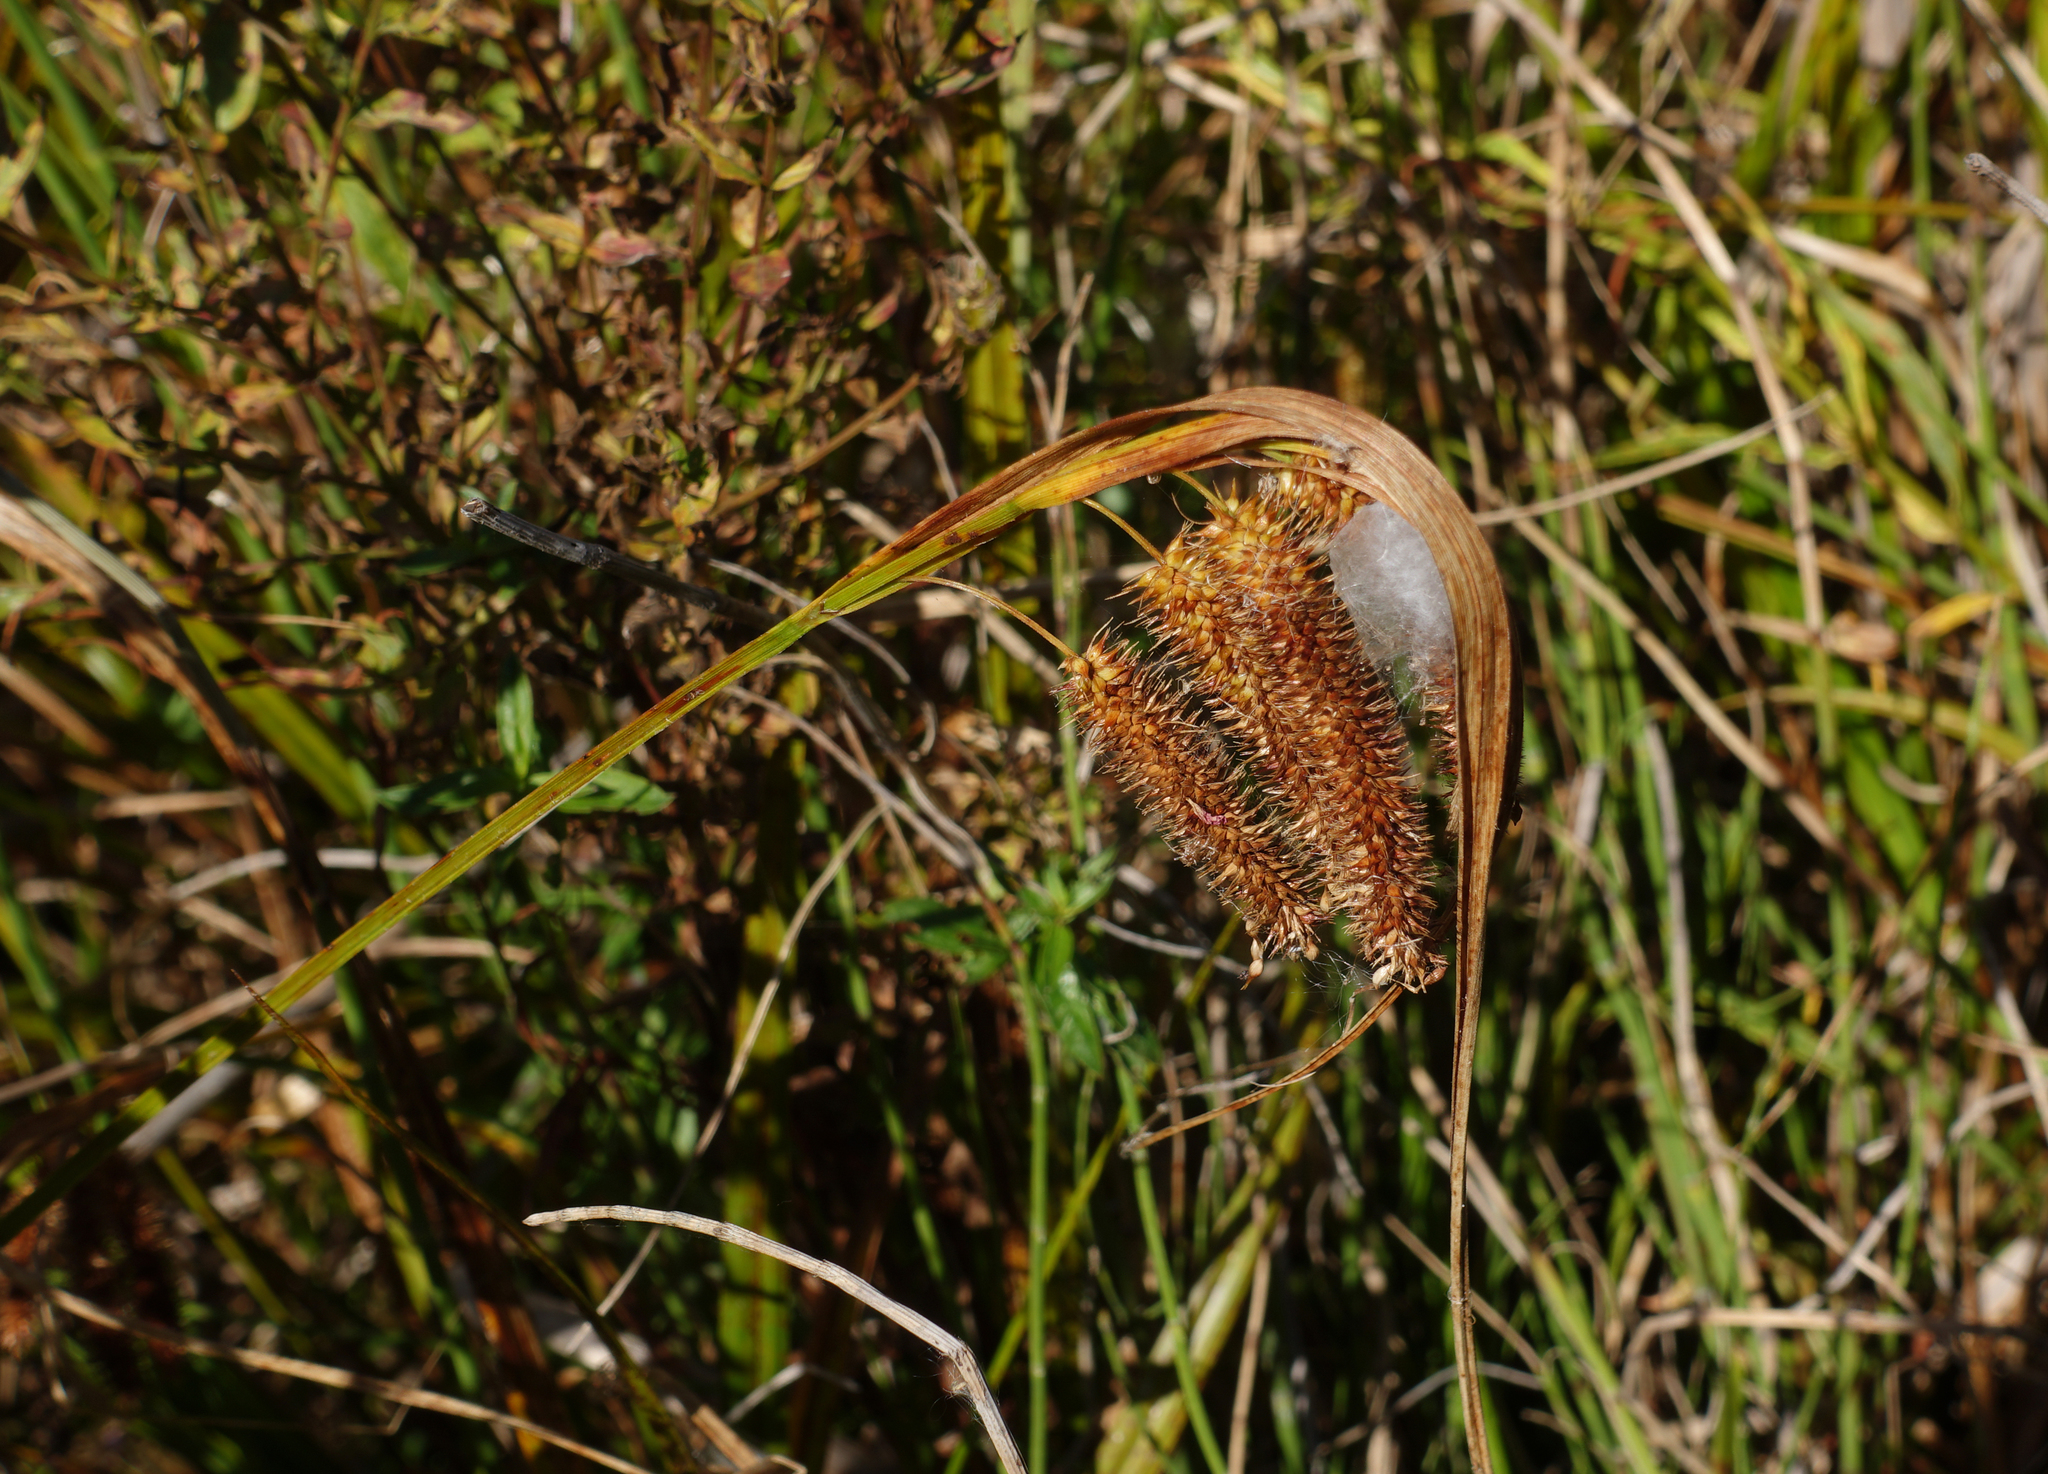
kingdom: Plantae
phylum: Tracheophyta
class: Liliopsida
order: Poales
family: Cyperaceae
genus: Carex
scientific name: Carex pseudocyperus
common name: Cyperus sedge
